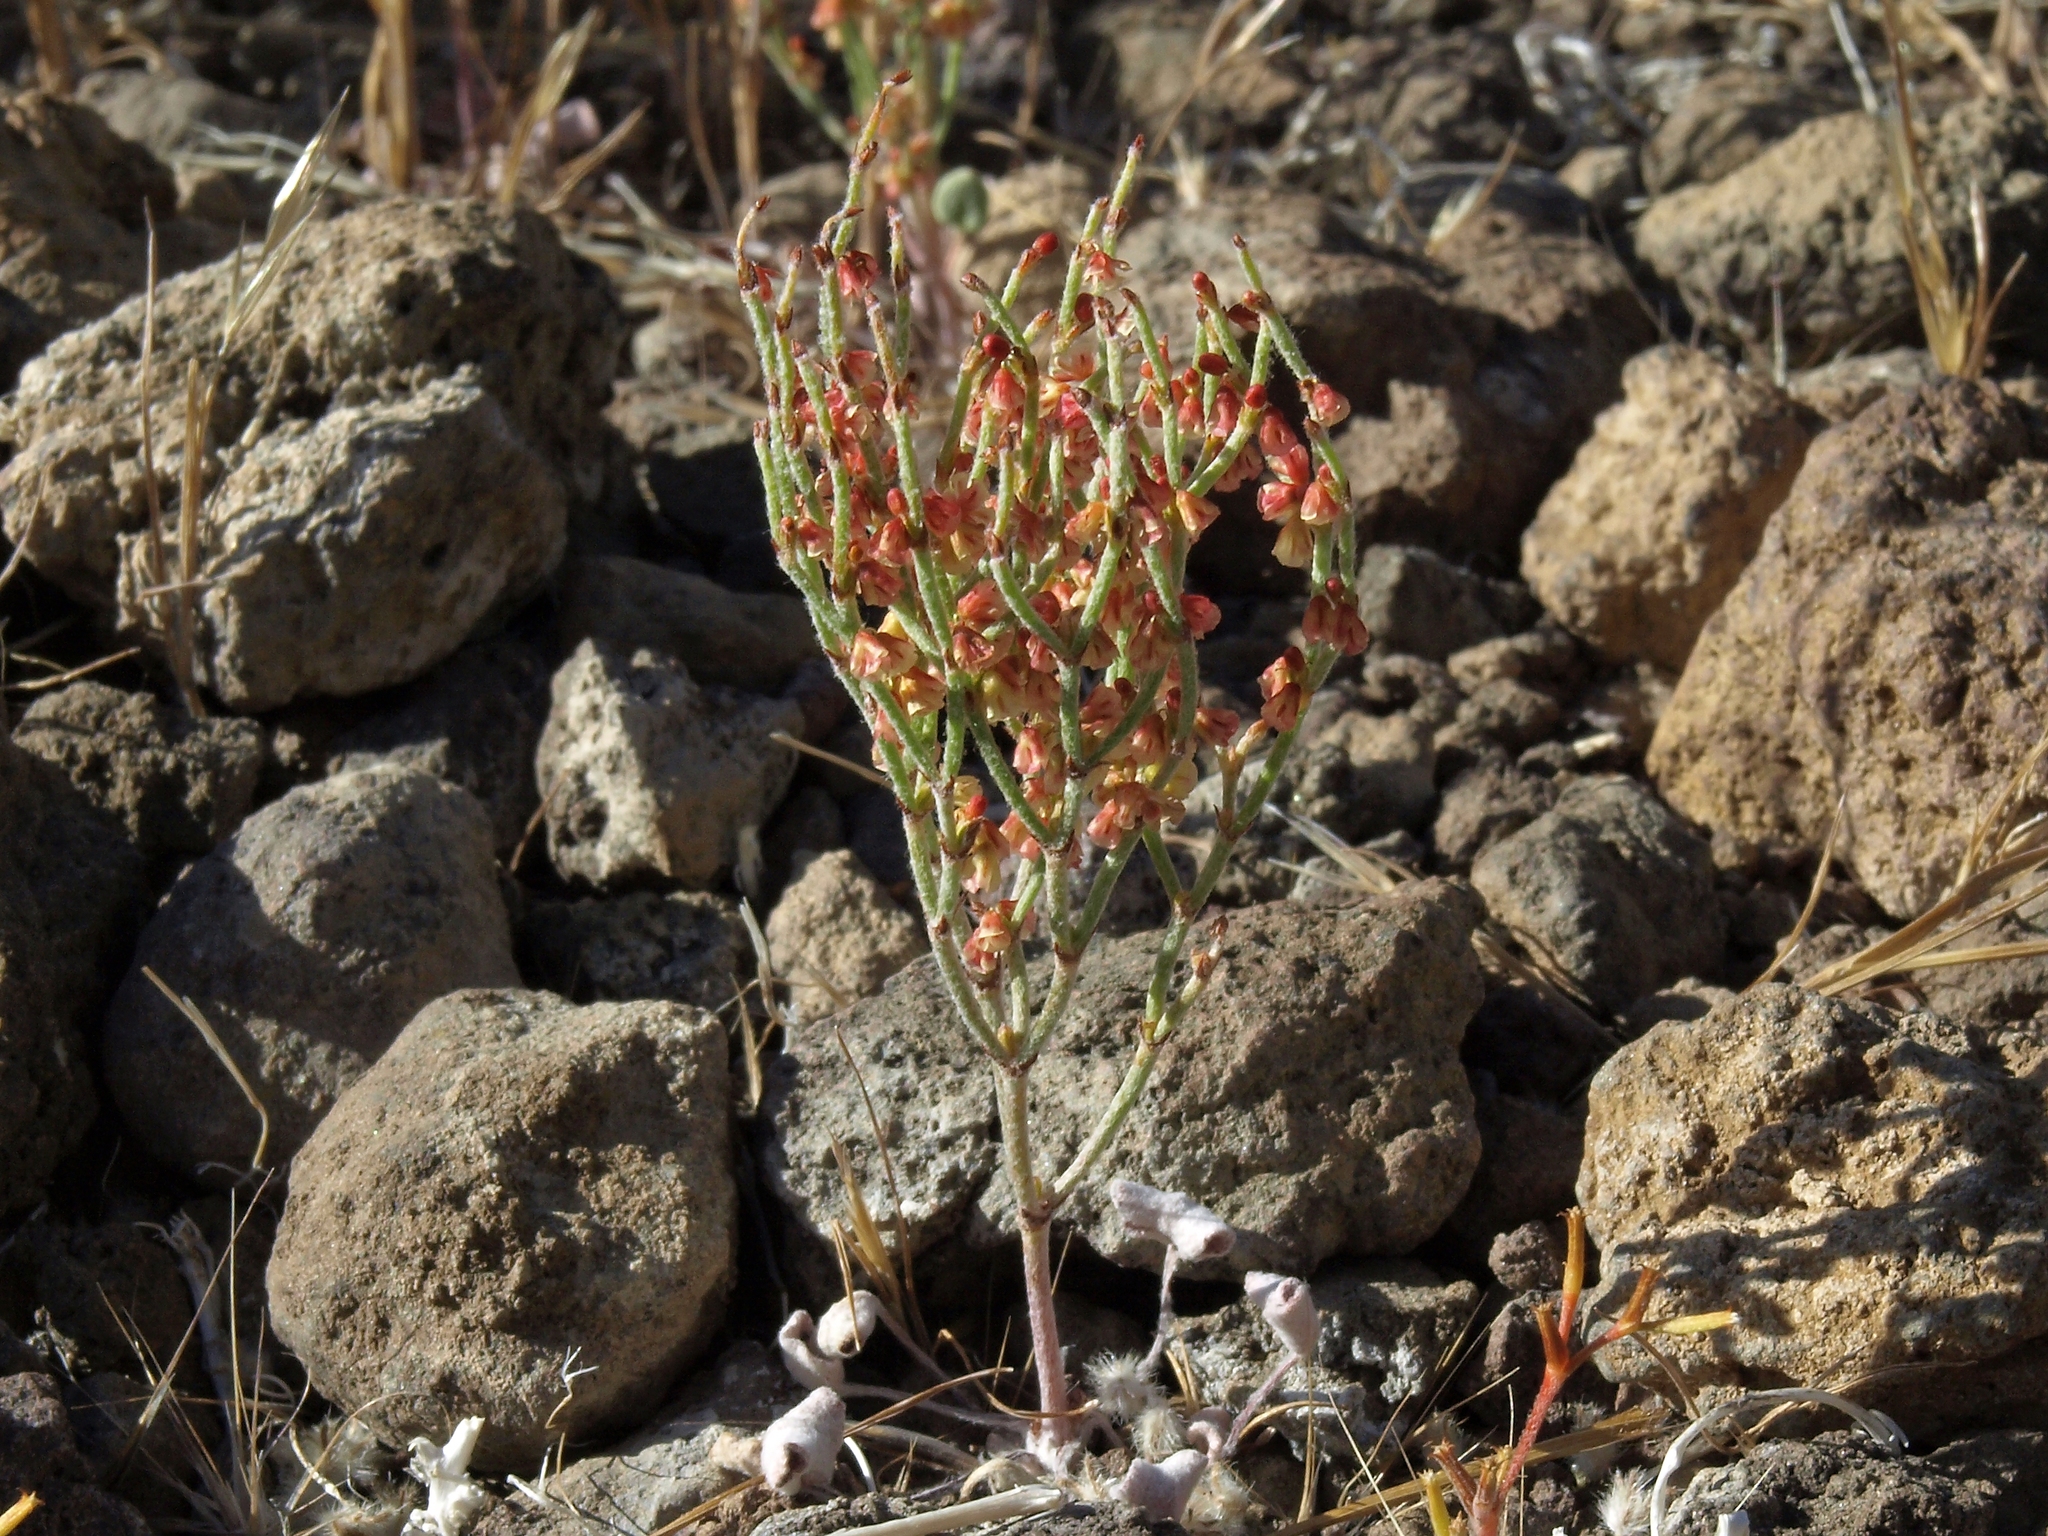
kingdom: Plantae
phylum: Tracheophyta
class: Magnoliopsida
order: Caryophyllales
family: Polygonaceae
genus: Eriogonum
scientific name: Eriogonum nidularium
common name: Bird's-nest wild buckwheat
